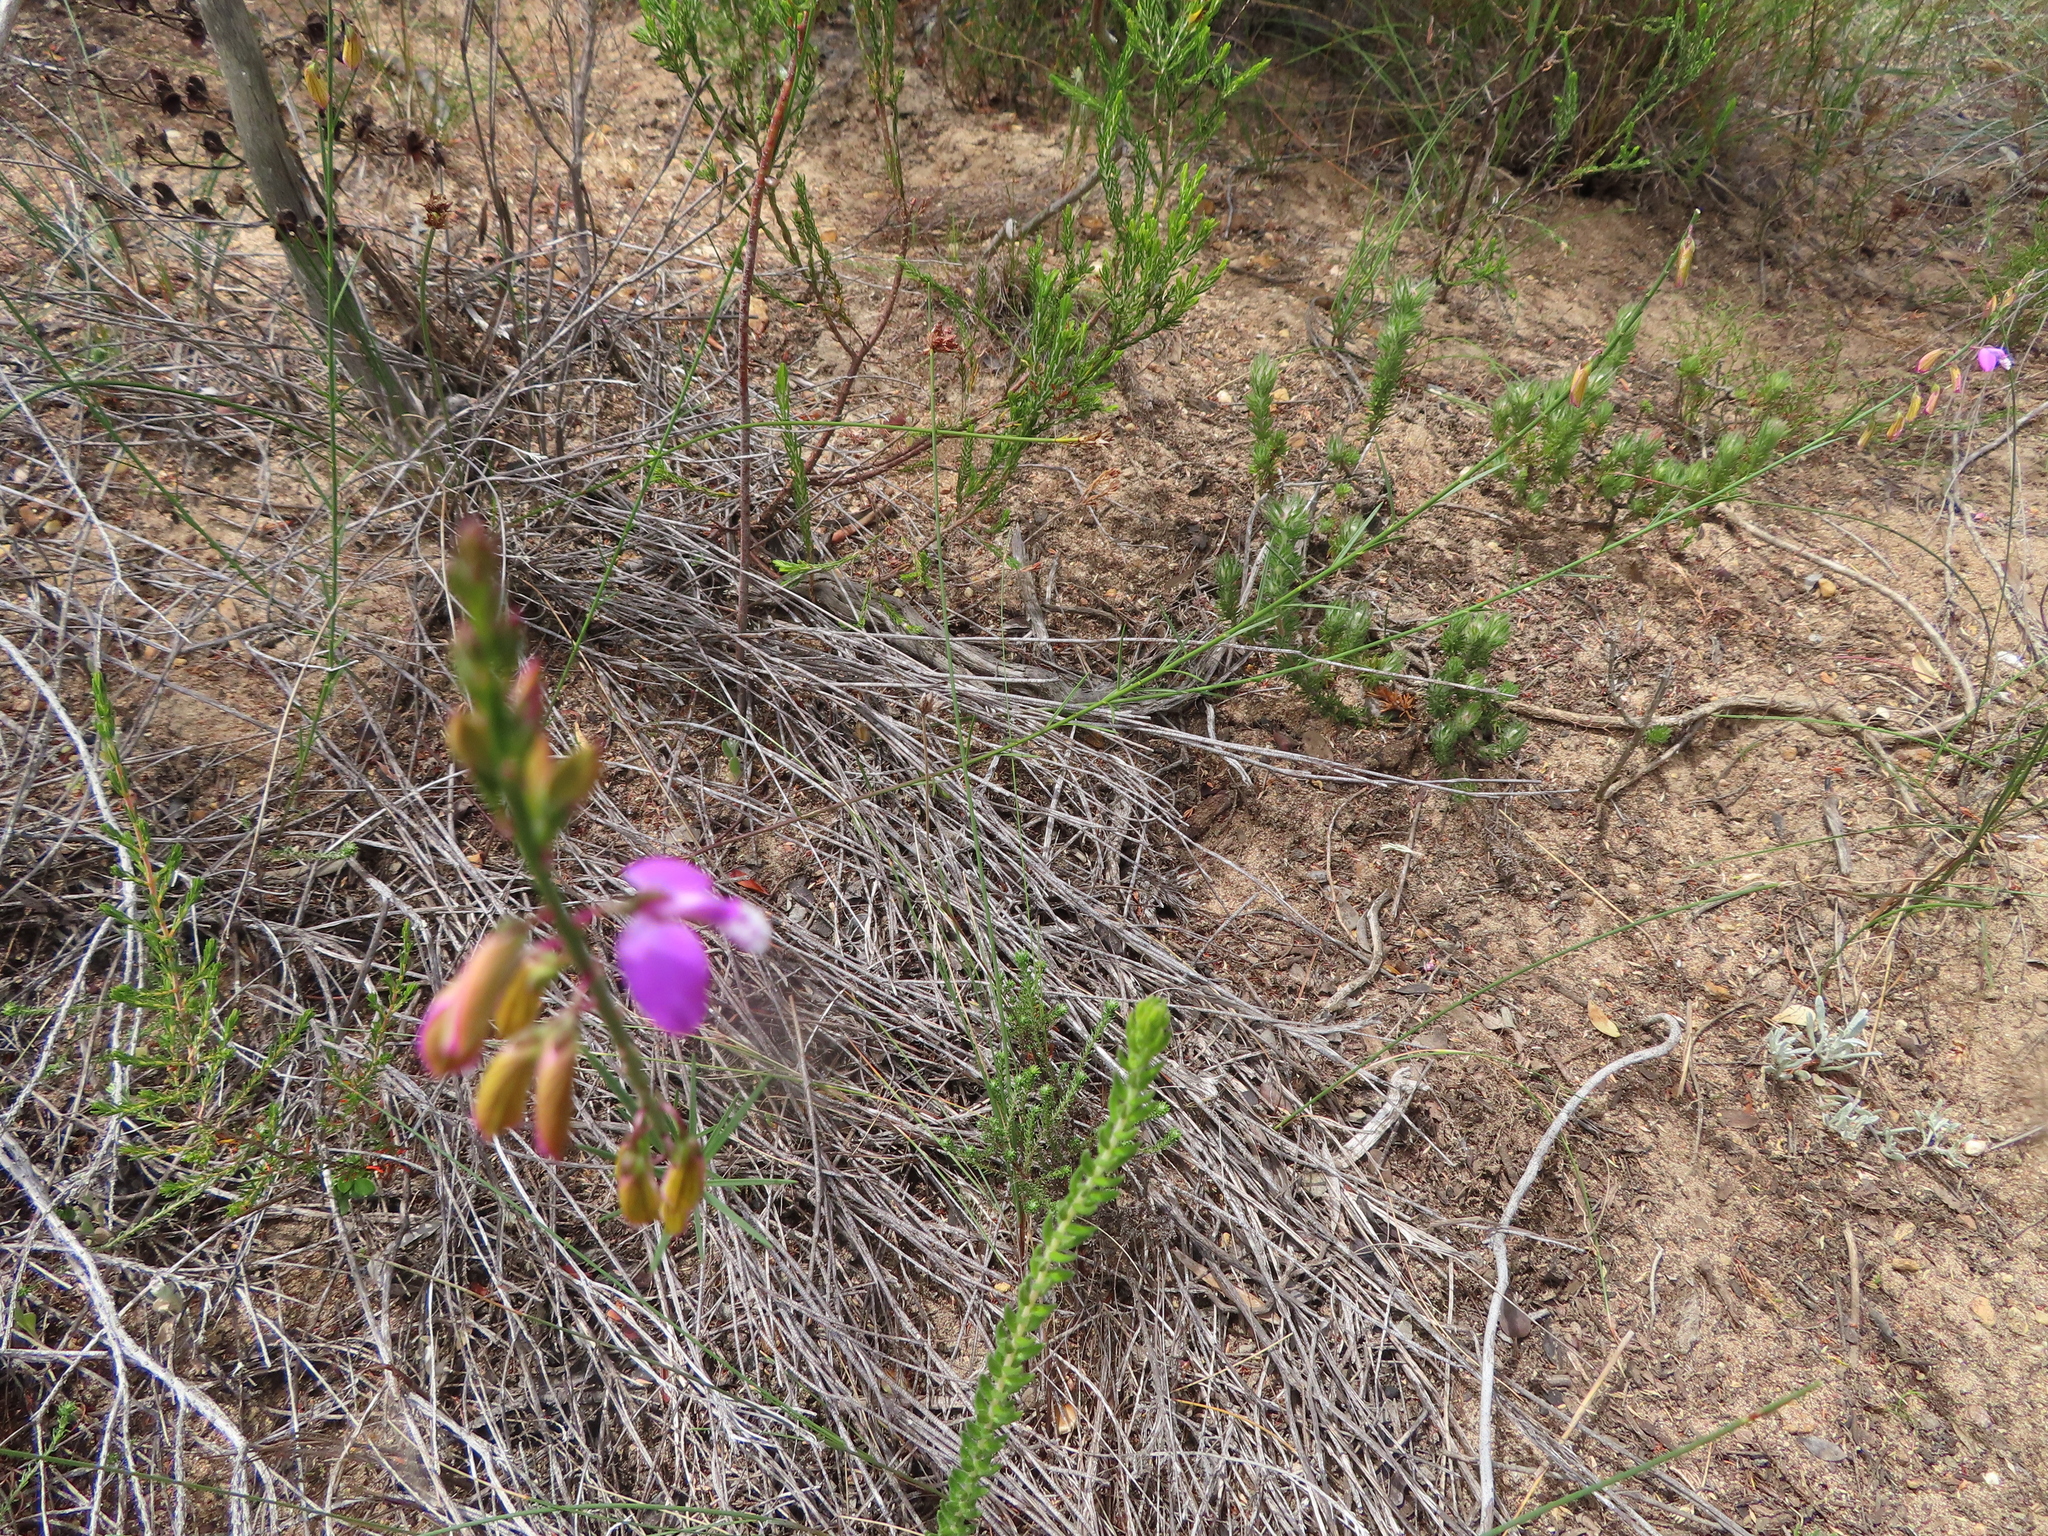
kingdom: Plantae
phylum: Tracheophyta
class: Magnoliopsida
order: Fabales
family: Polygalaceae
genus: Polygala
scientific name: Polygala garcini
